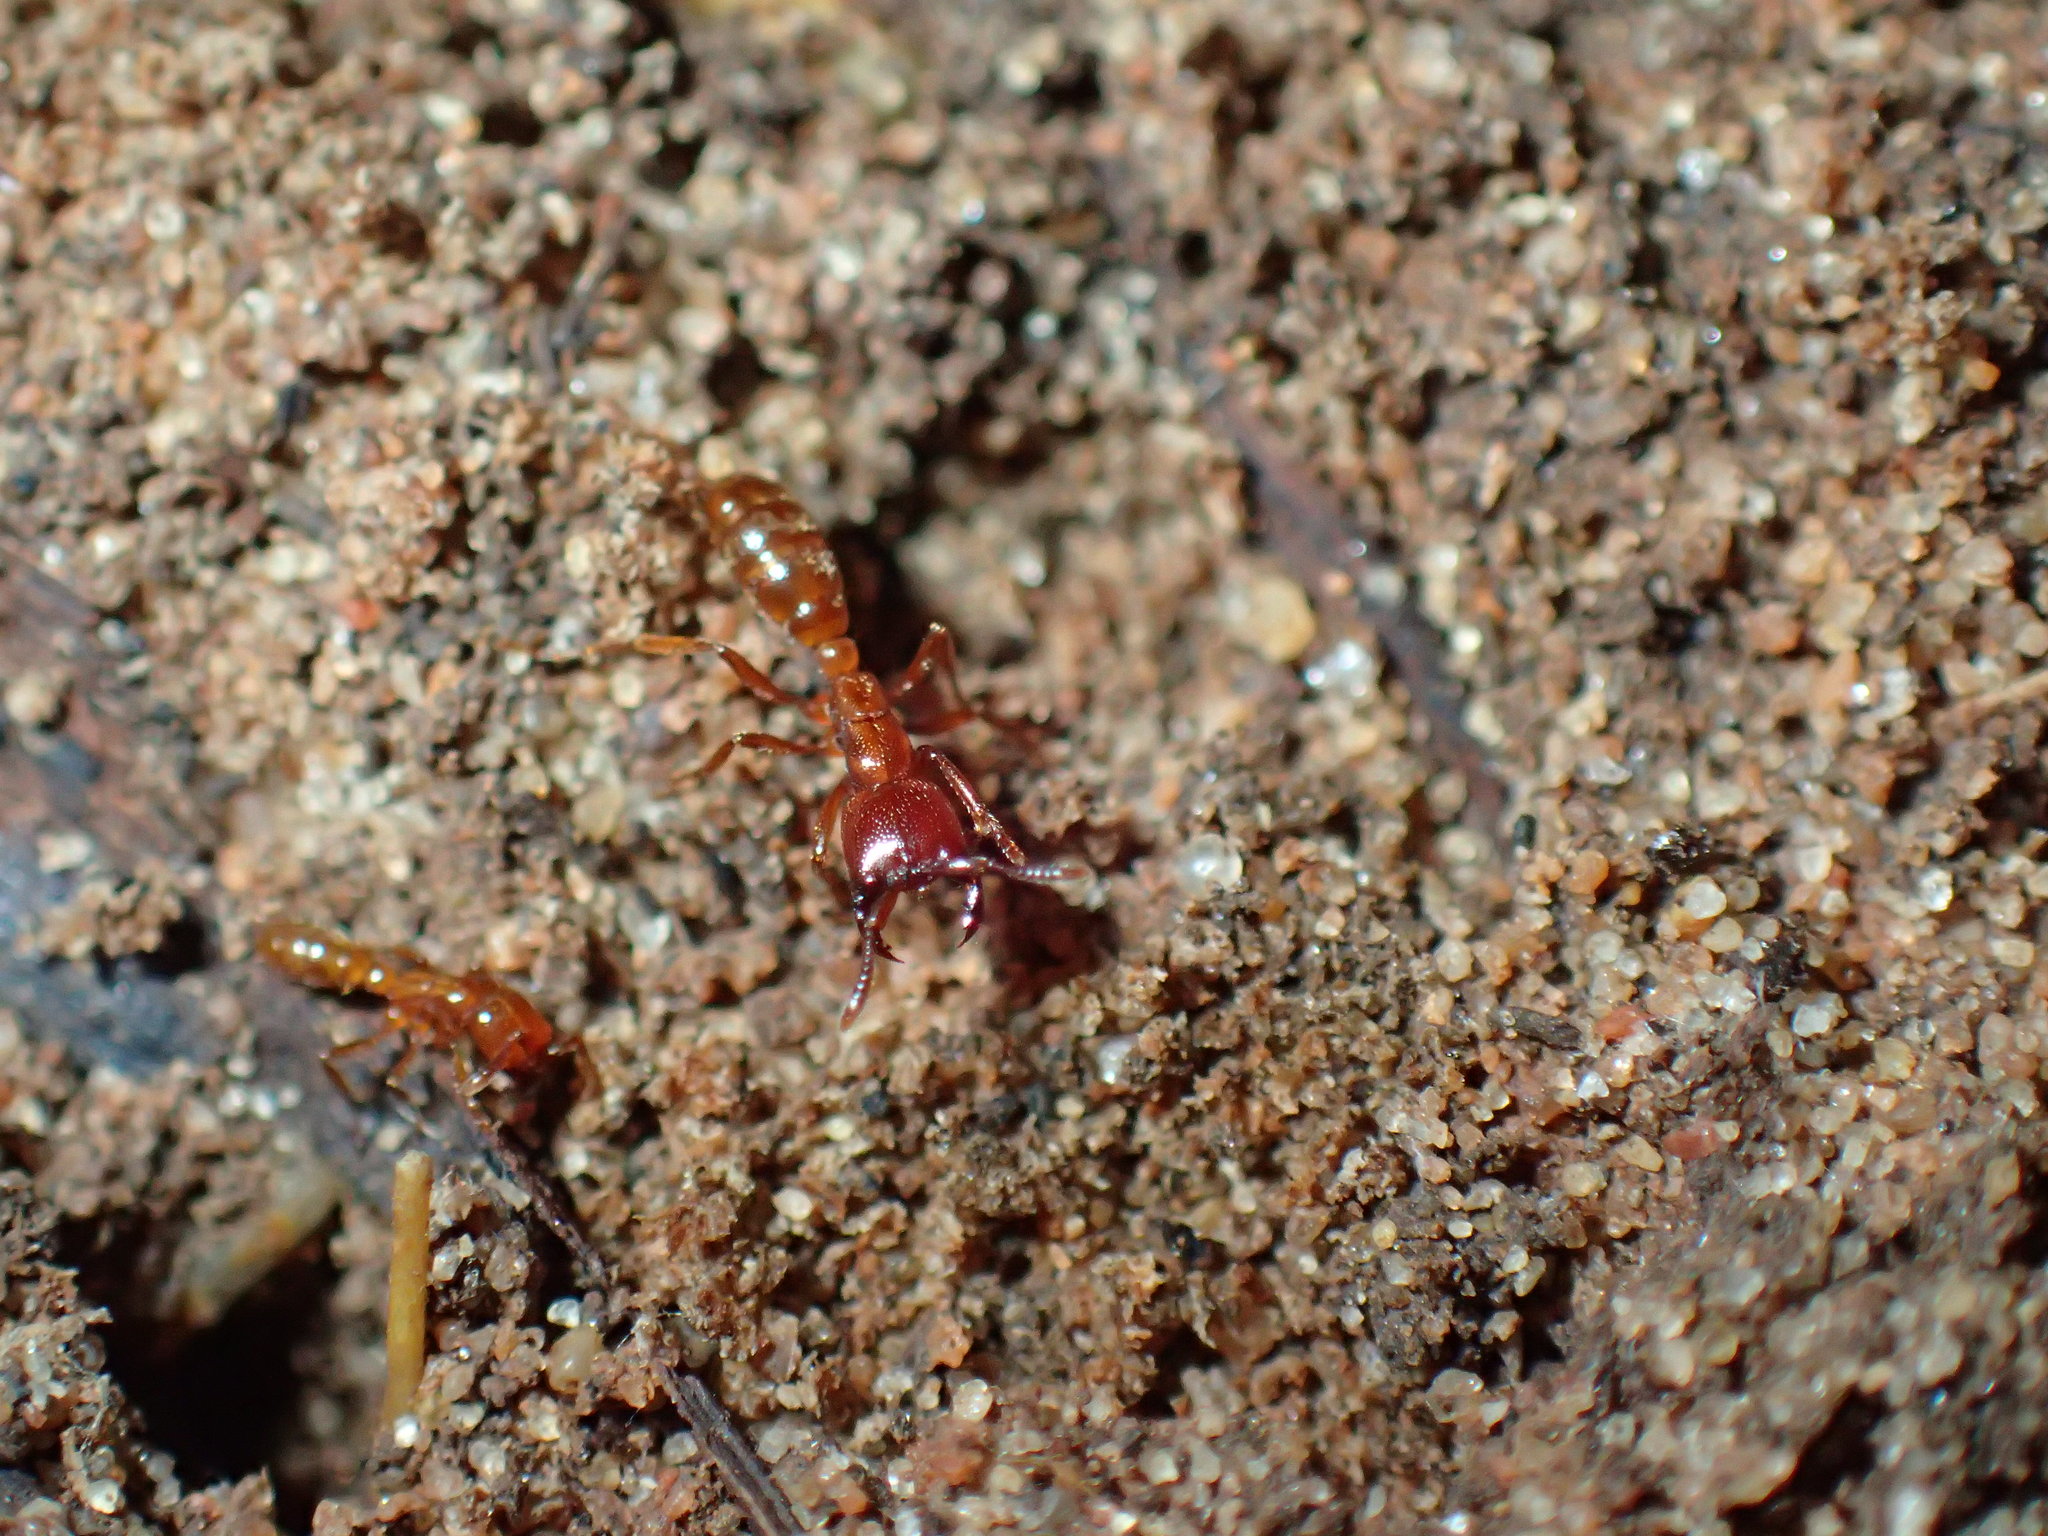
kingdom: Animalia
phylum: Arthropoda
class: Insecta
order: Hymenoptera
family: Formicidae
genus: Dorylus
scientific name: Dorylus helvolus
